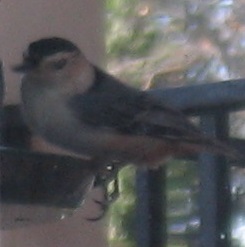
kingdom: Animalia
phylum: Chordata
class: Aves
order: Passeriformes
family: Sittidae
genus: Sitta
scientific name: Sitta carolinensis
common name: White-breasted nuthatch
